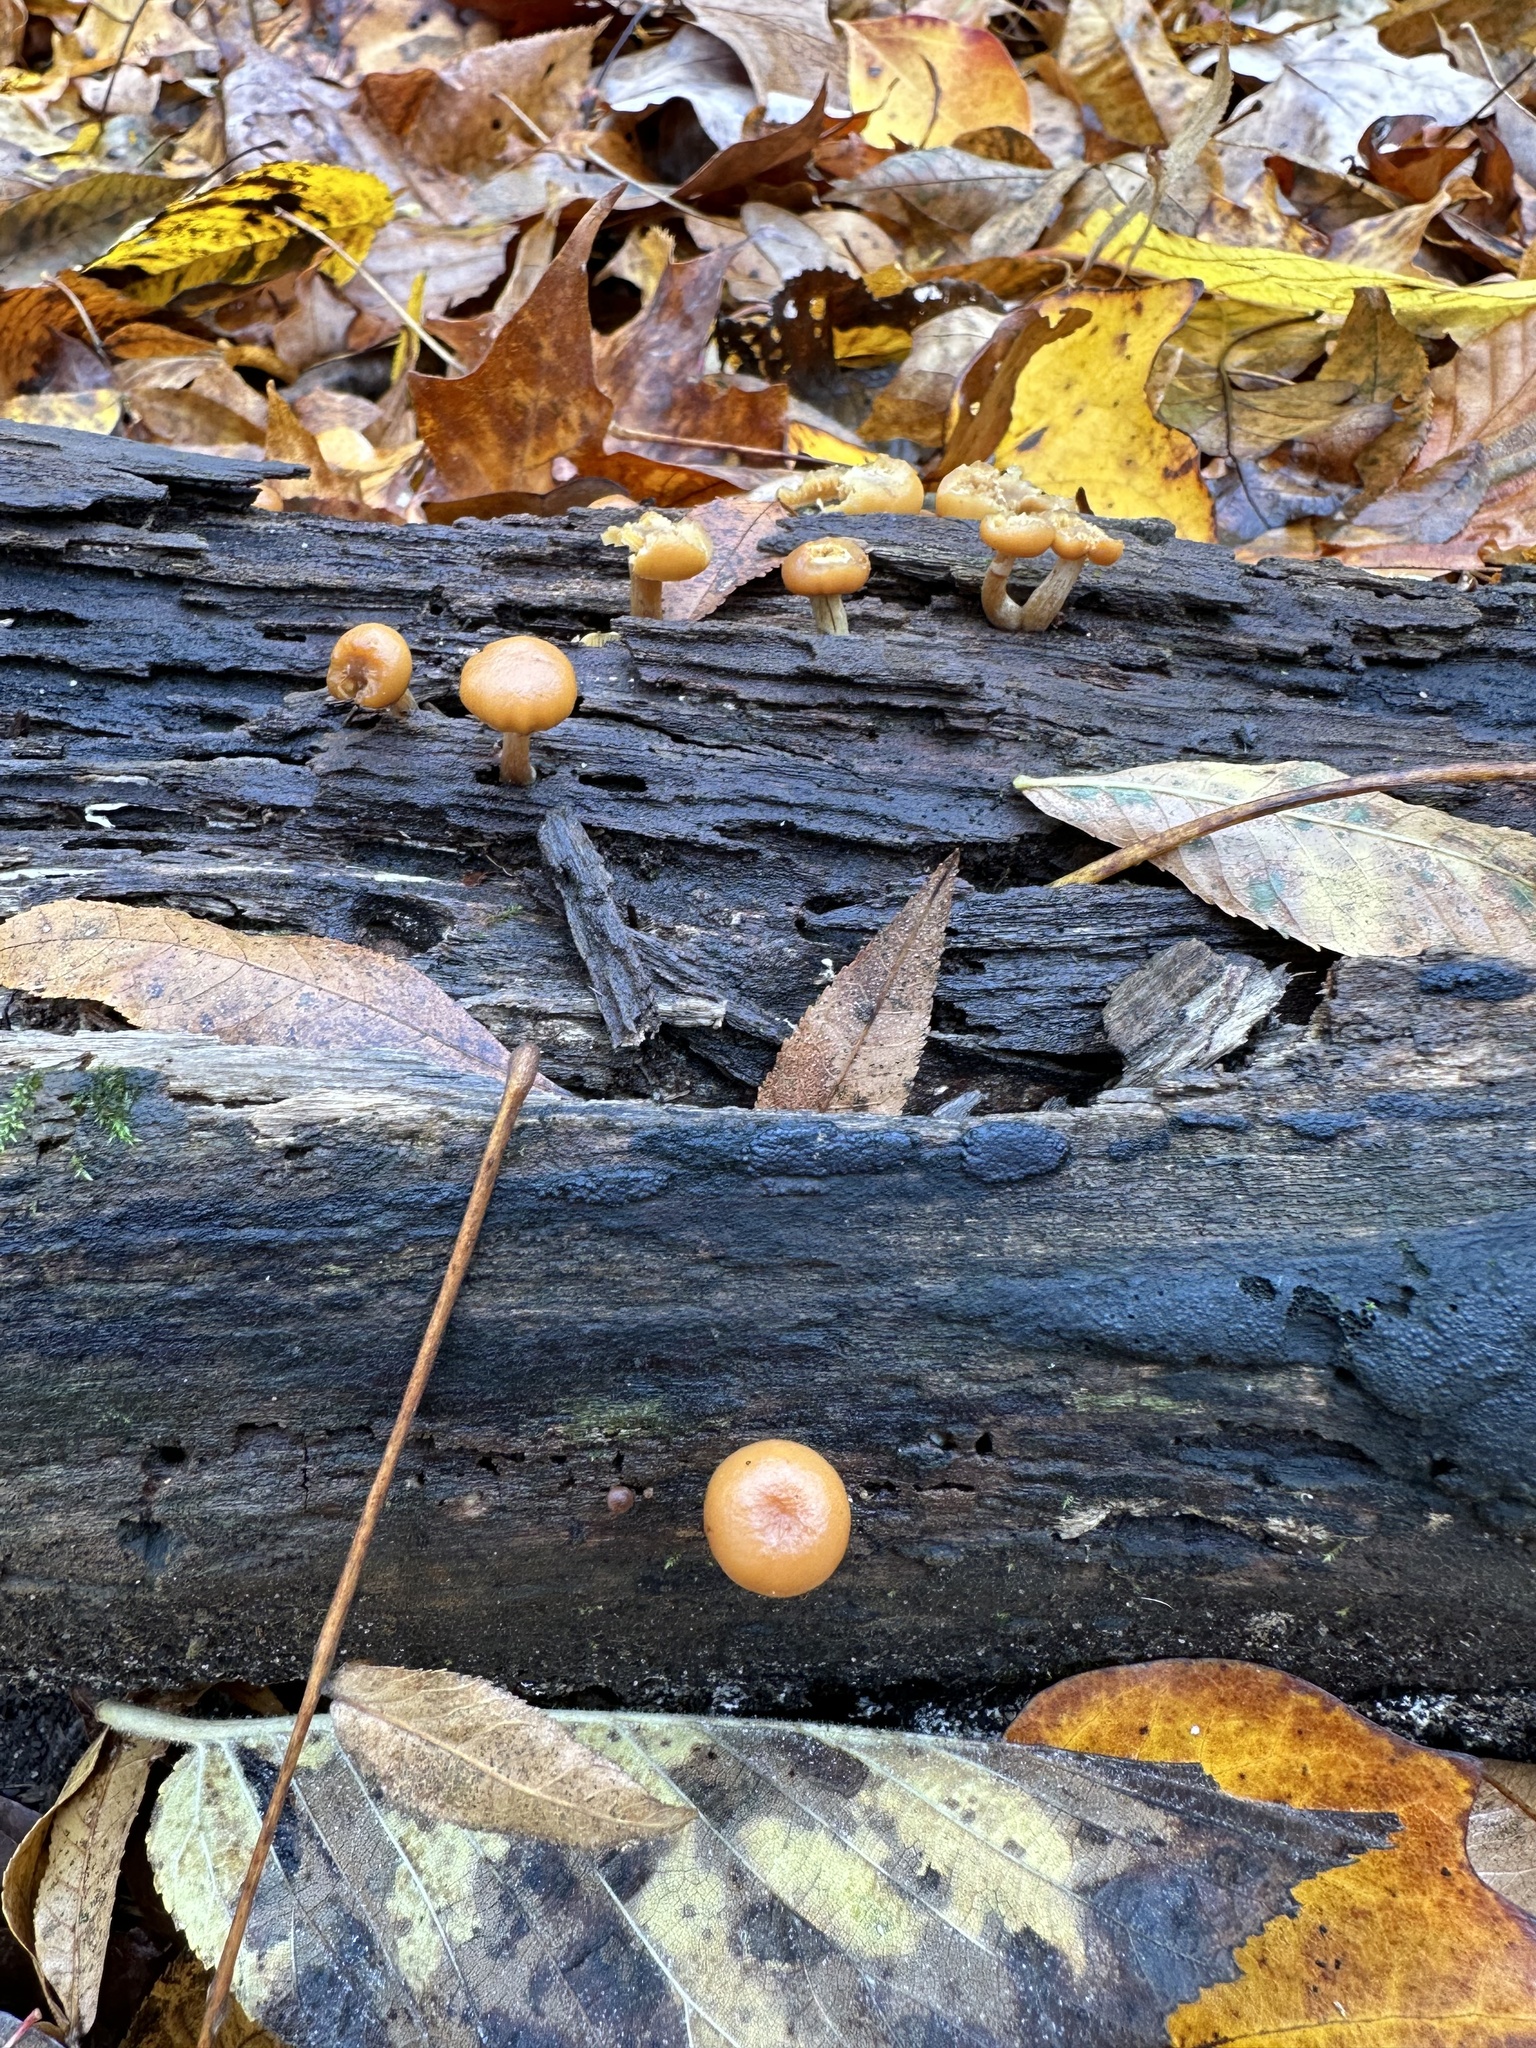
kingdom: Fungi
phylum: Basidiomycota
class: Agaricomycetes
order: Agaricales
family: Hymenogastraceae
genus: Galerina
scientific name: Galerina marginata
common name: Funeral bell
